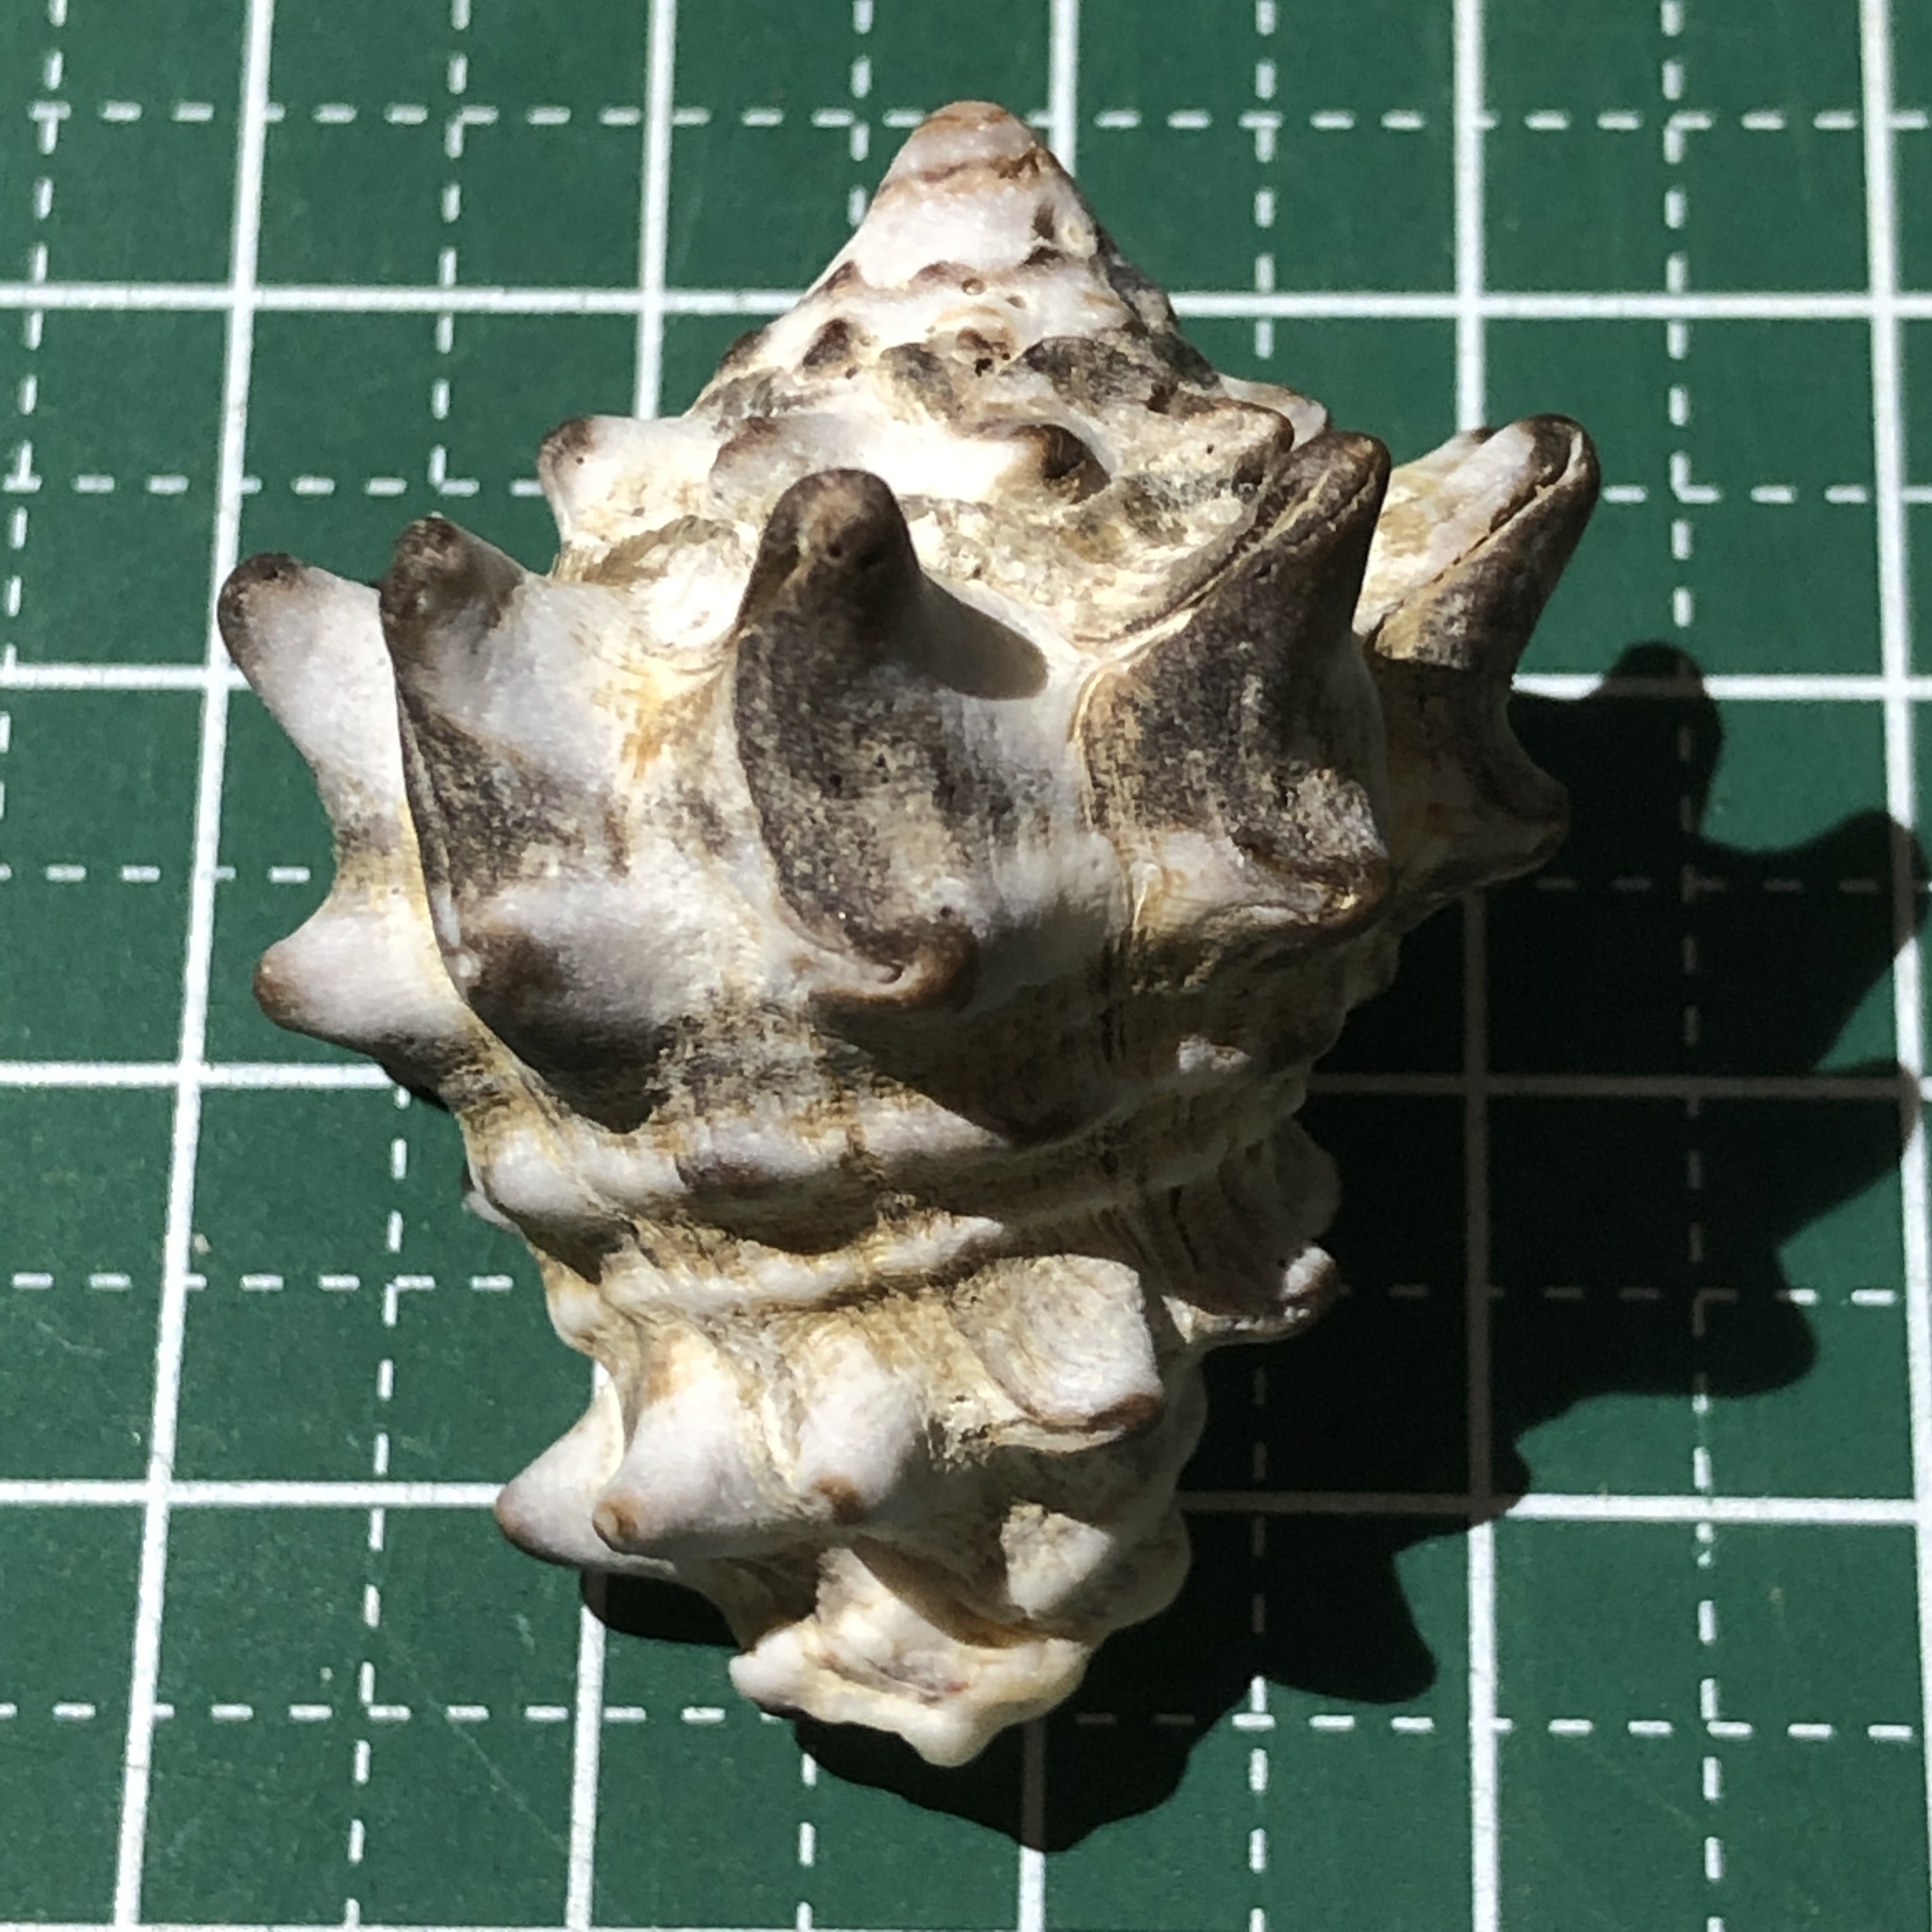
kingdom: Animalia
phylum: Mollusca
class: Gastropoda
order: Neogastropoda
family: Turbinellidae
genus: Vasum
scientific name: Vasum turbinellus
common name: Pacific top vase
